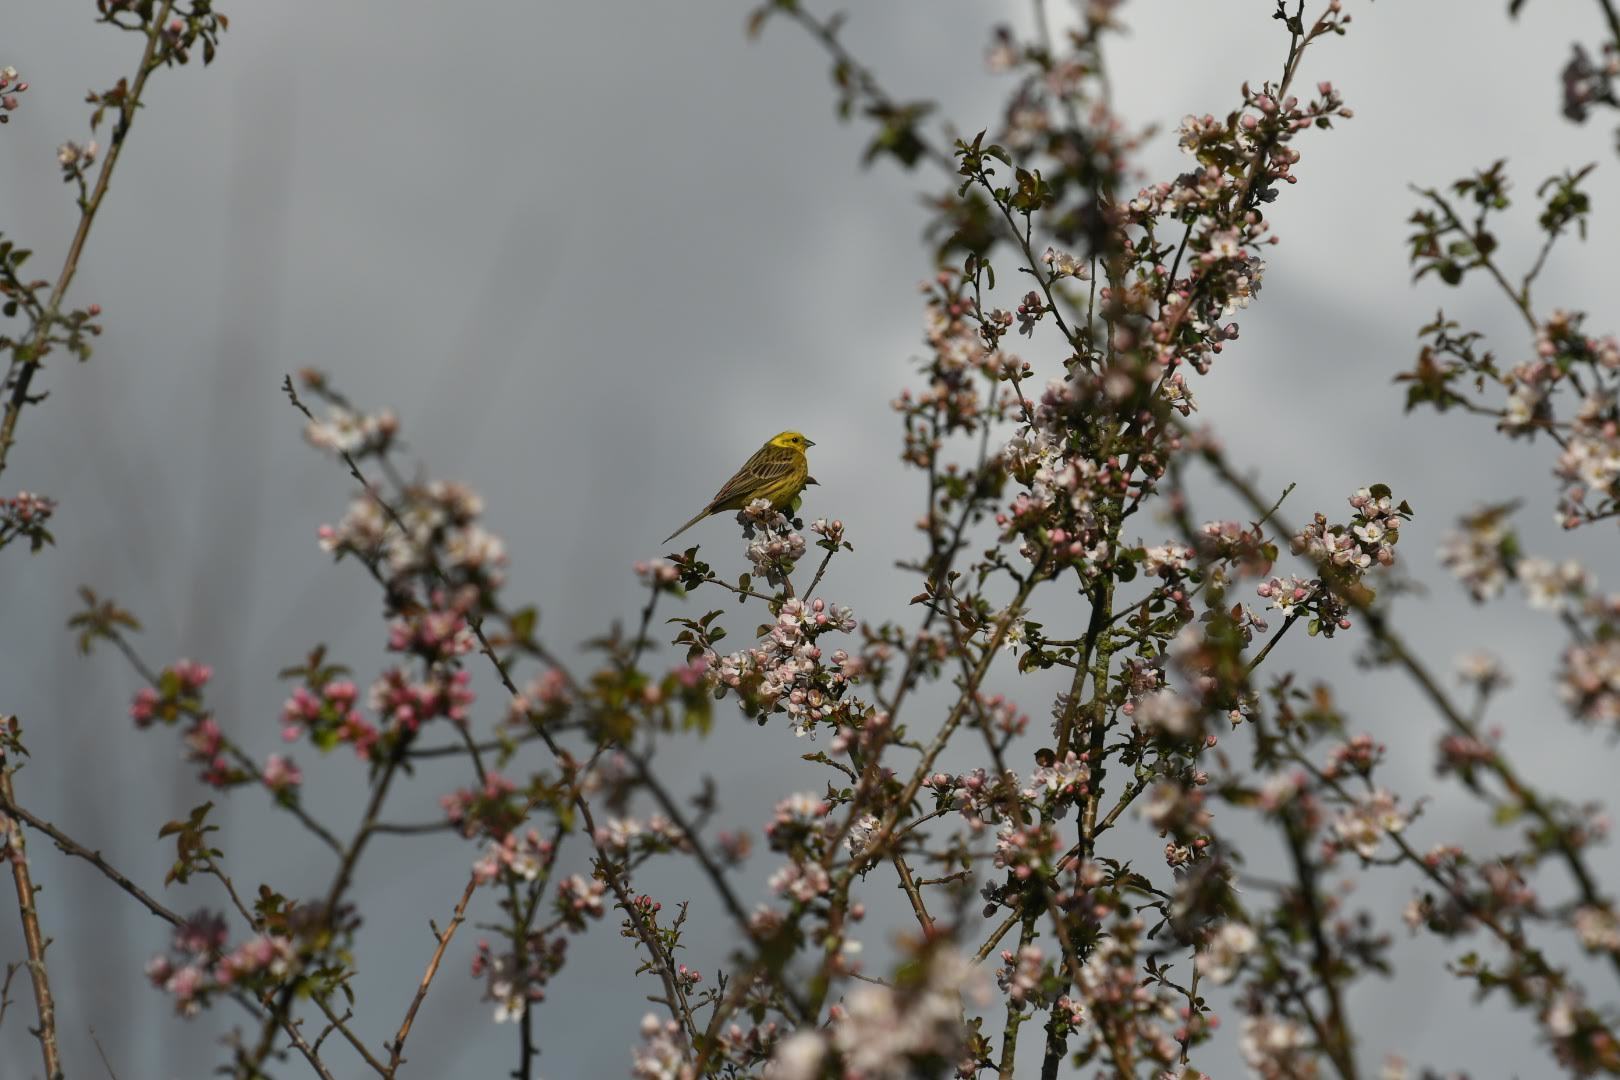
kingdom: Animalia
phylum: Chordata
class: Aves
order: Passeriformes
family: Emberizidae
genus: Emberiza
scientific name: Emberiza citrinella
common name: Yellowhammer
